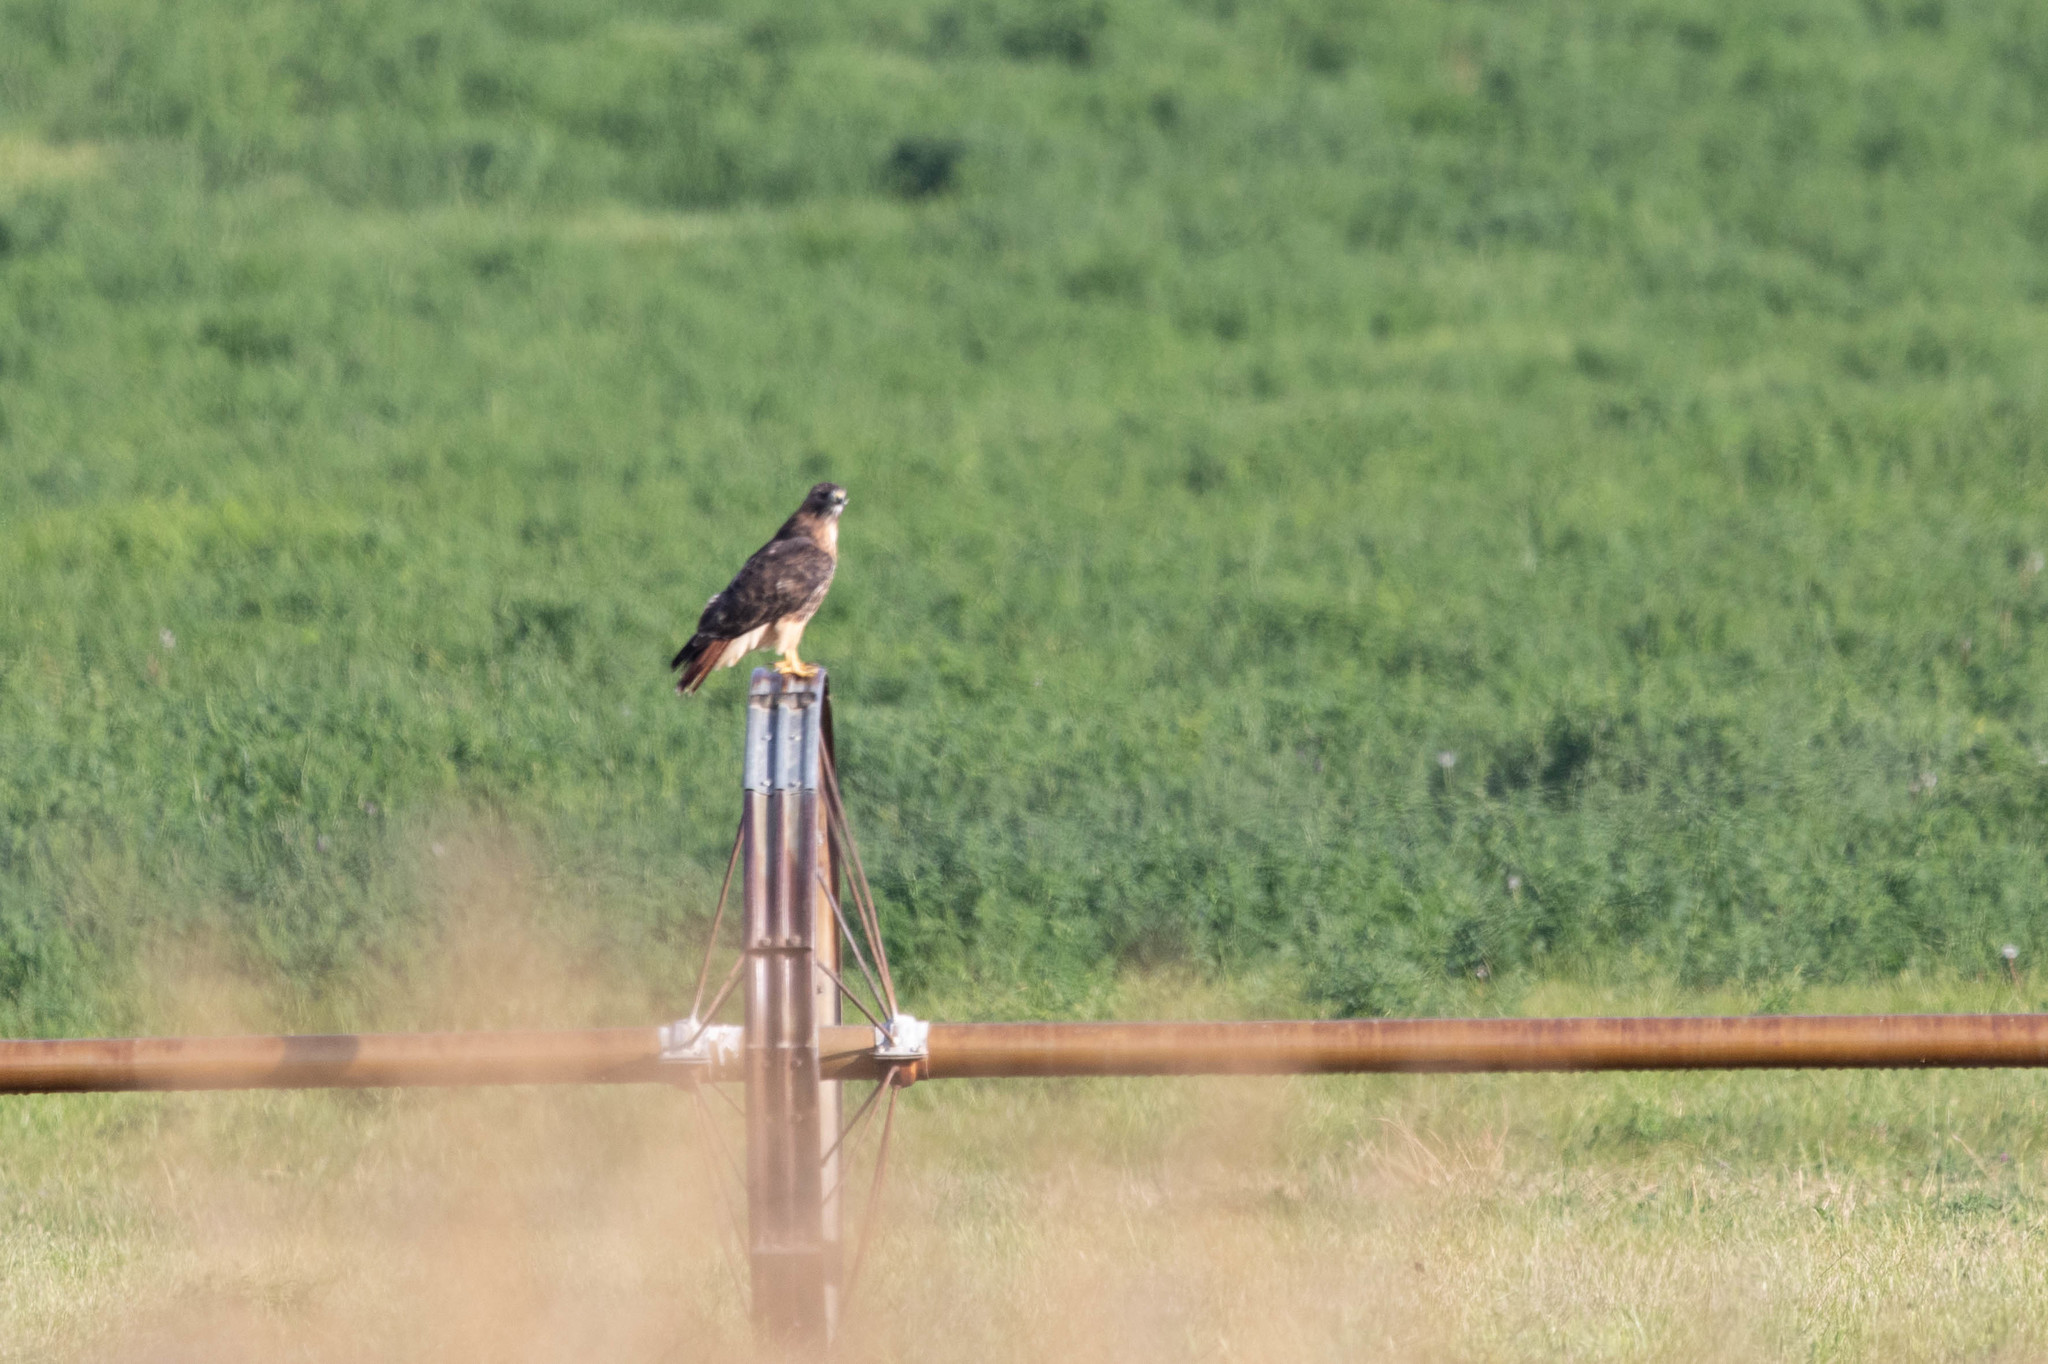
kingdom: Animalia
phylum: Chordata
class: Aves
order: Accipitriformes
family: Accipitridae
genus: Buteo
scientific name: Buteo jamaicensis
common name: Red-tailed hawk
